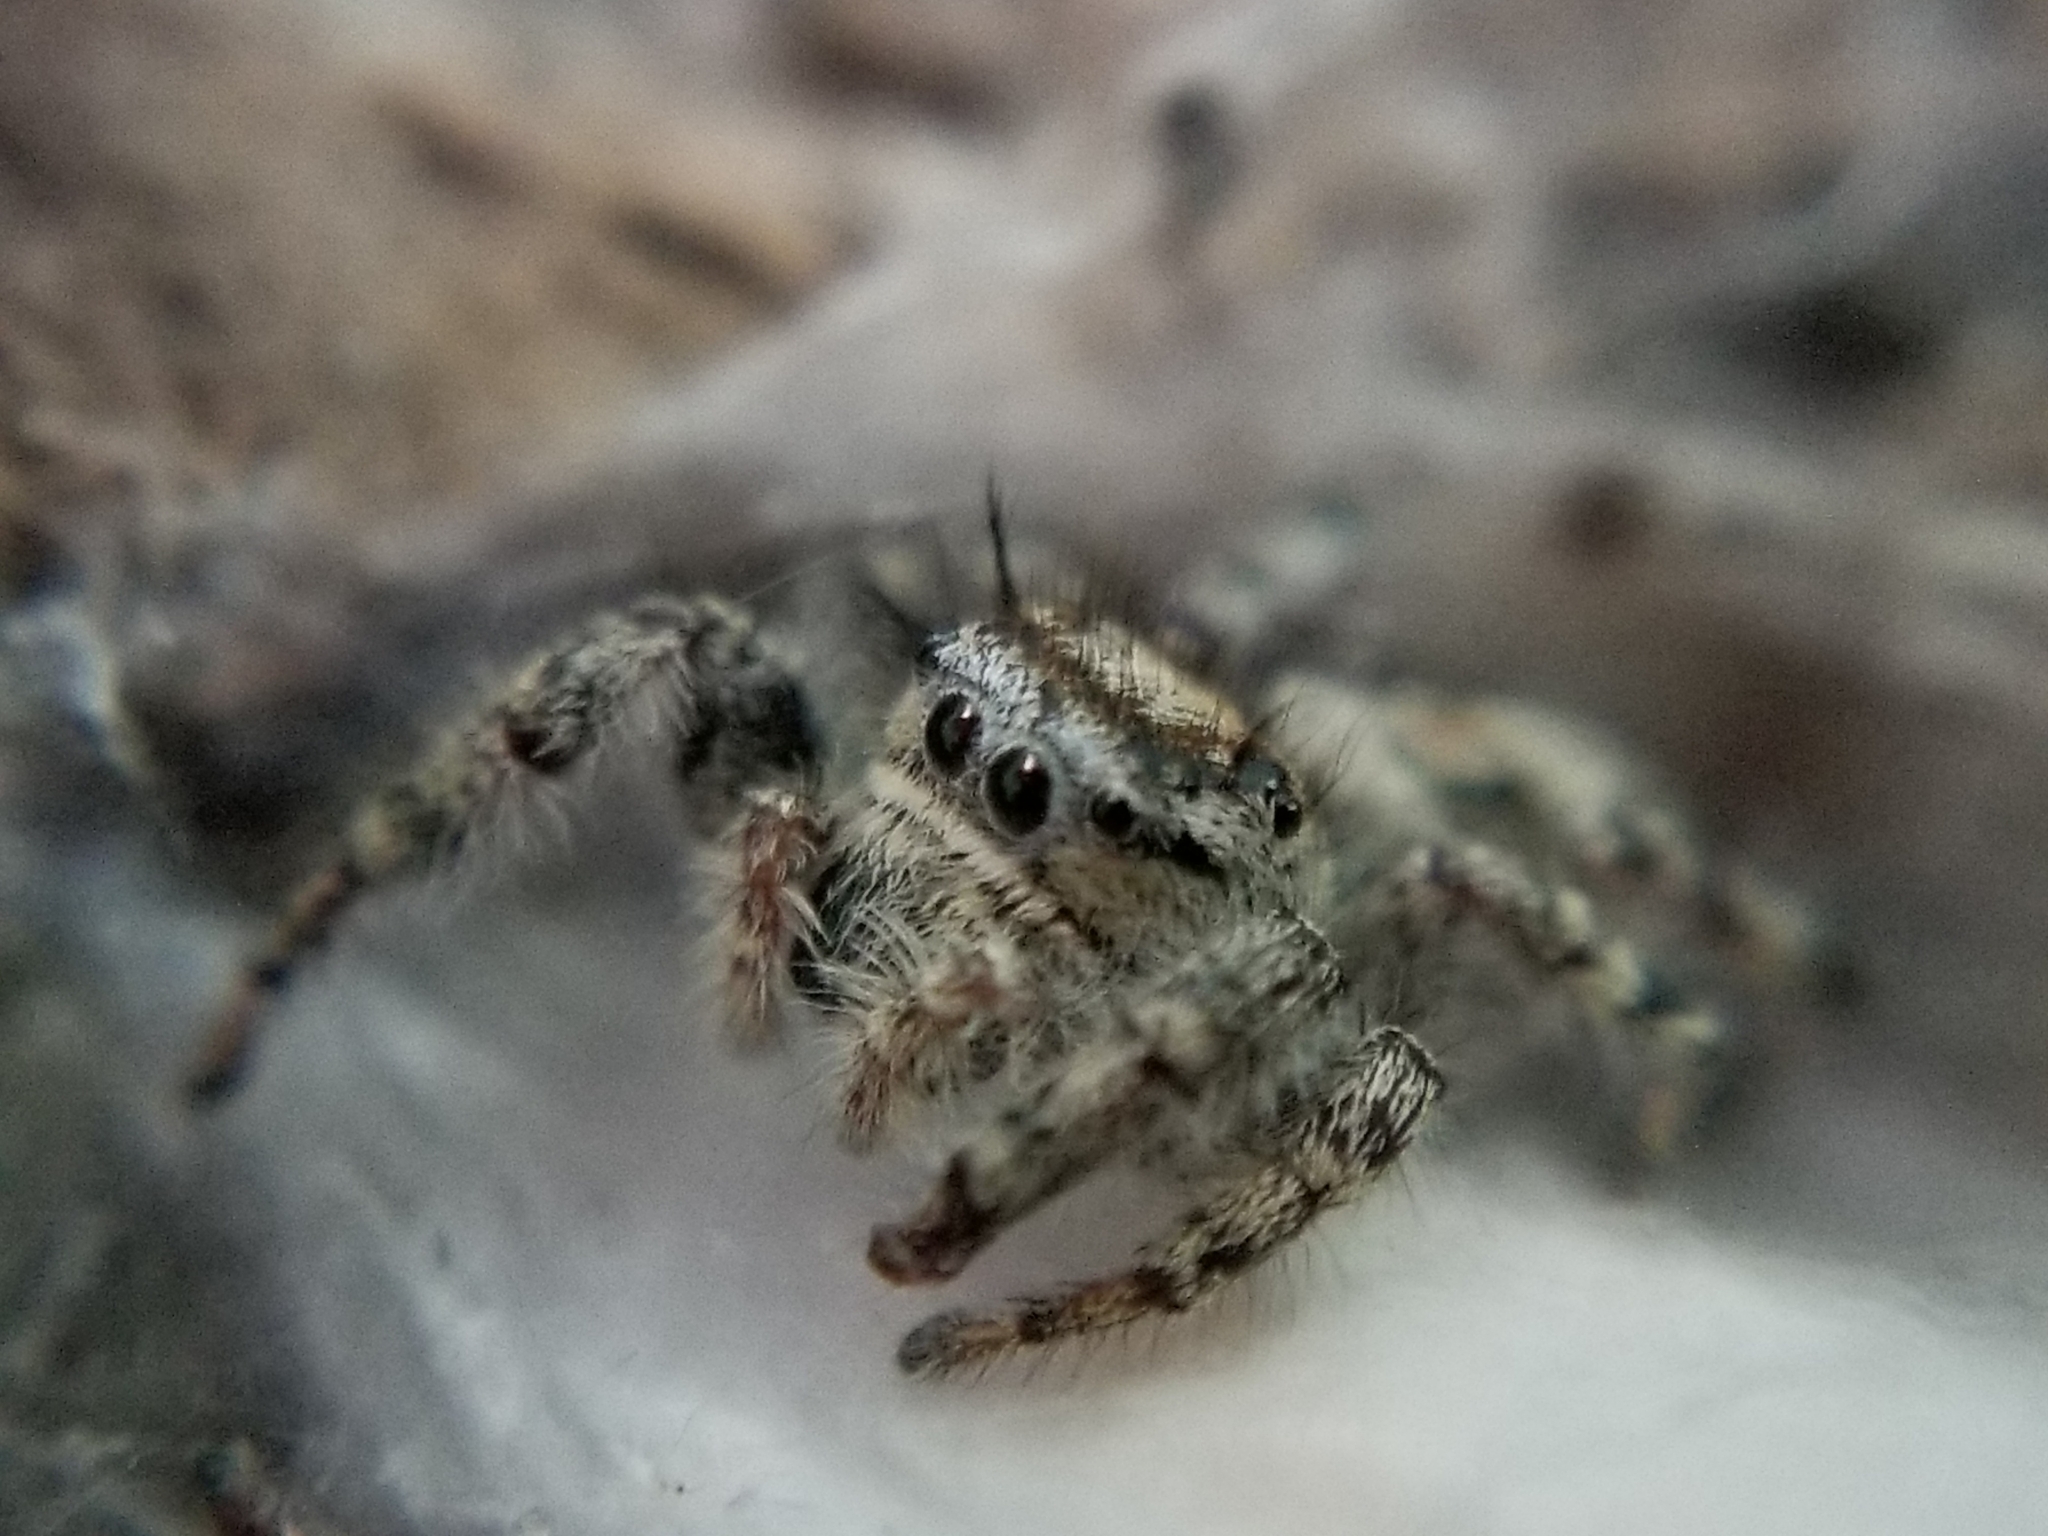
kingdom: Animalia
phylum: Arthropoda
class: Arachnida
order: Araneae
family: Salticidae
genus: Phidippus
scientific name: Phidippus comatus
